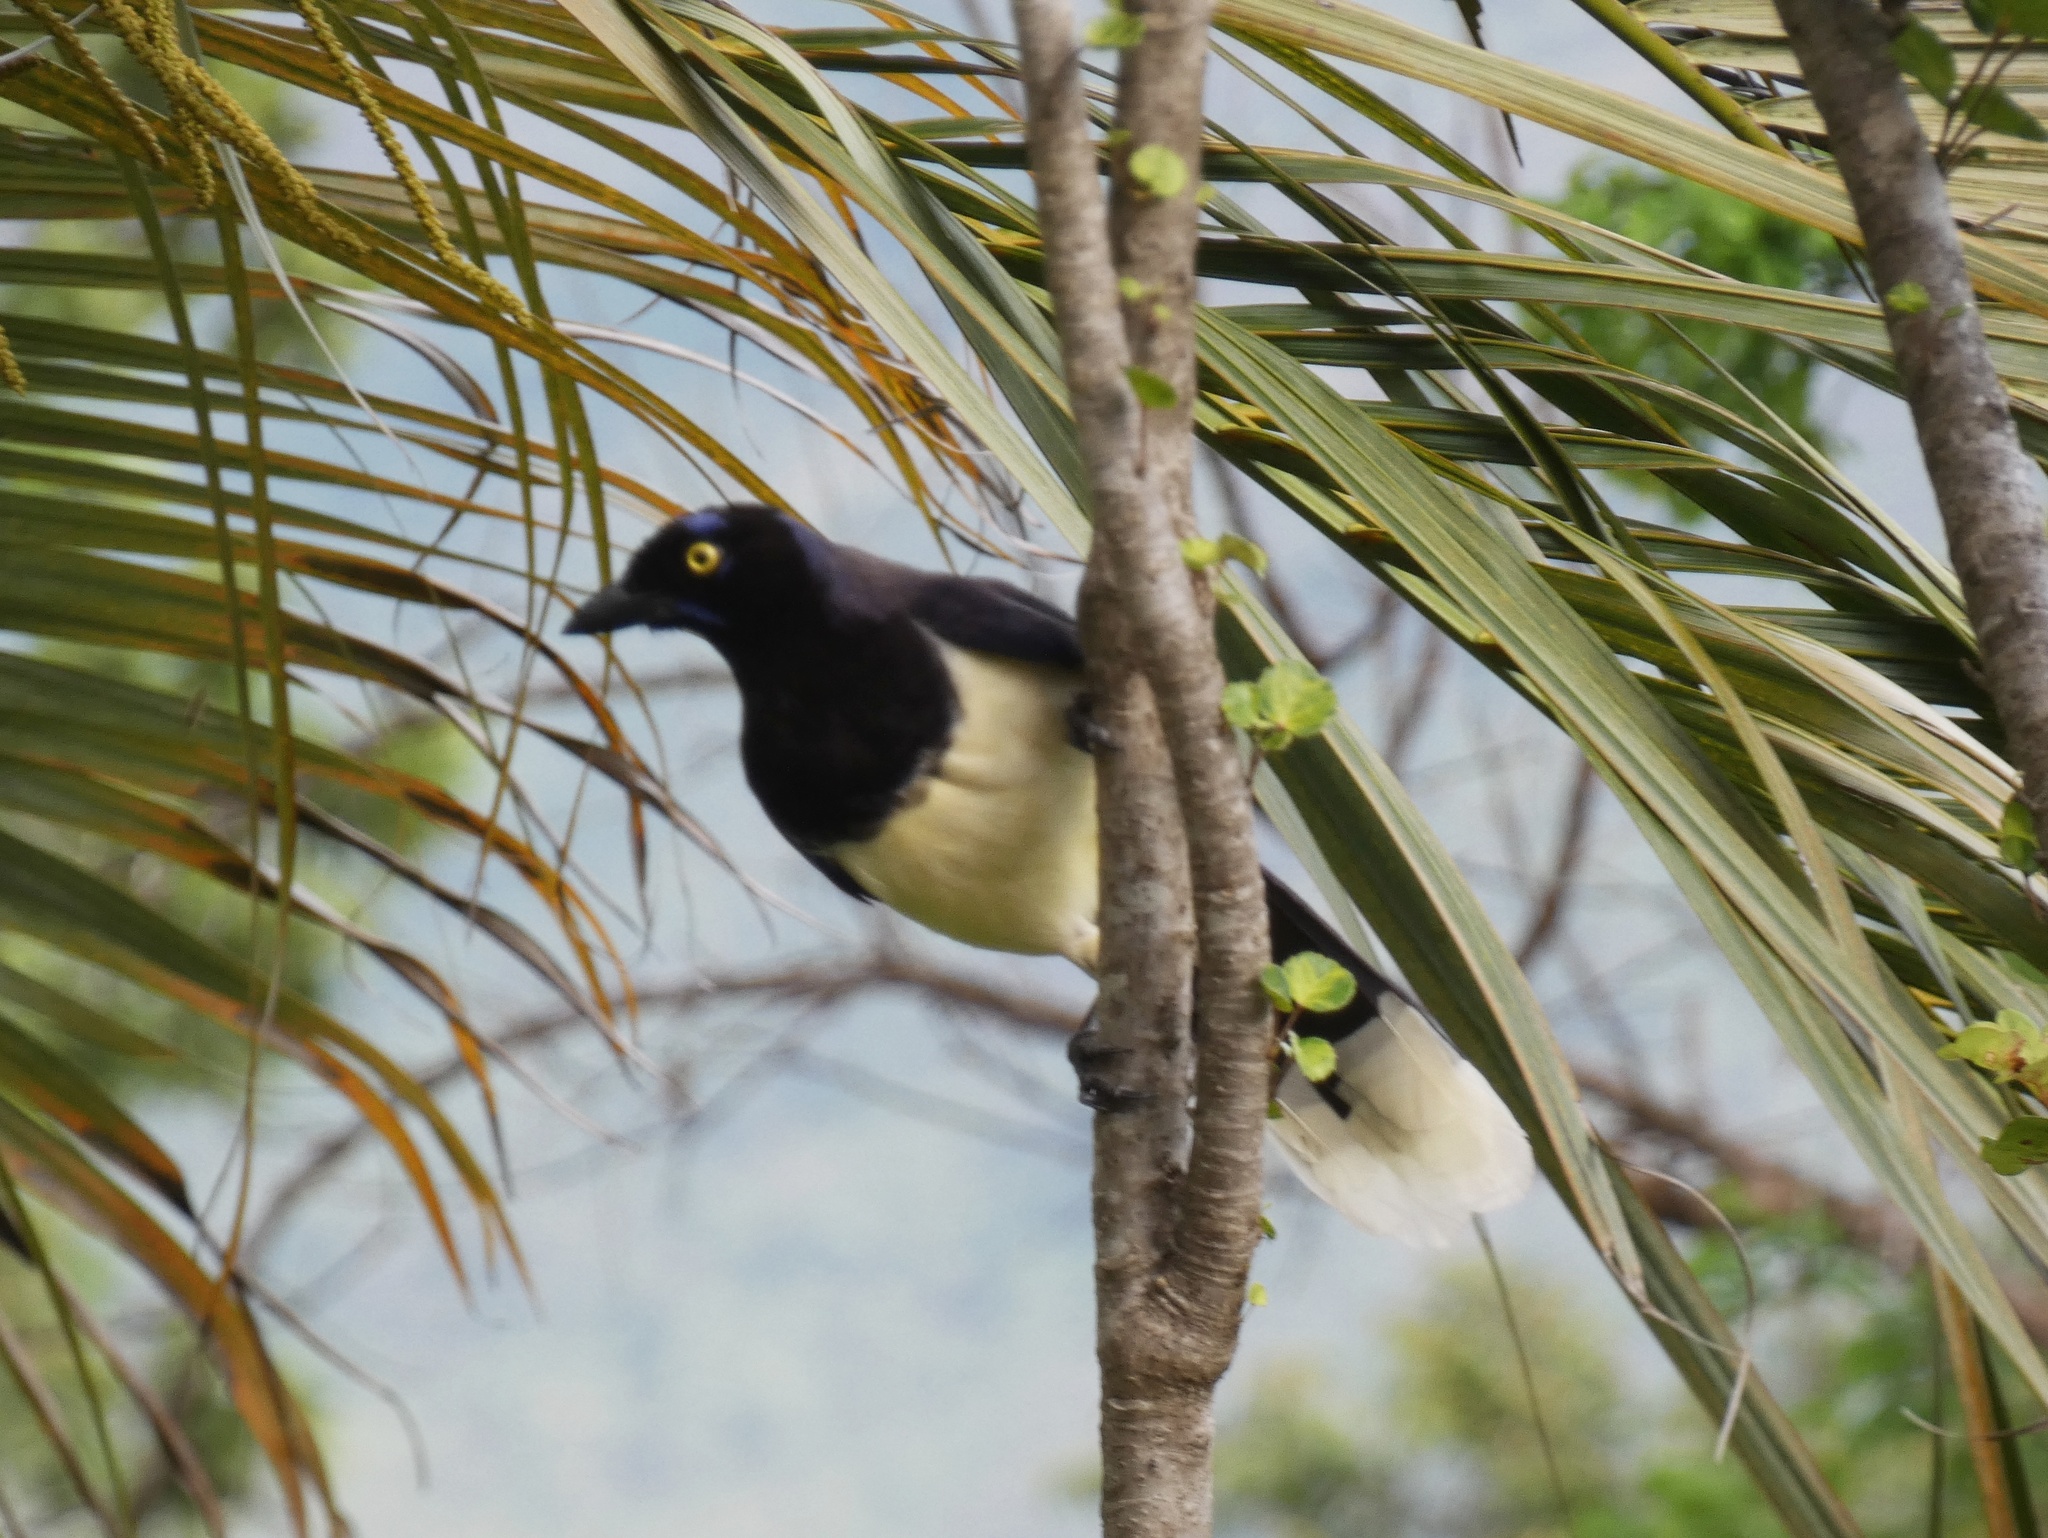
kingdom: Animalia
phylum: Chordata
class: Aves
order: Passeriformes
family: Corvidae
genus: Cyanocorax
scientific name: Cyanocorax affinis
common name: Black-chested jay
